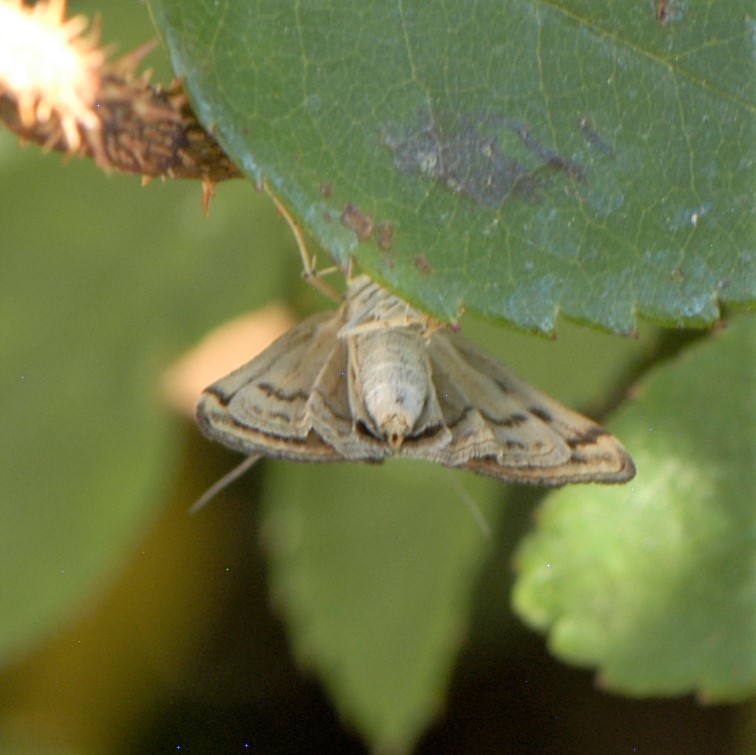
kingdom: Animalia
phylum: Arthropoda
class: Insecta
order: Lepidoptera
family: Crambidae
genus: Loxostege
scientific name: Loxostege
